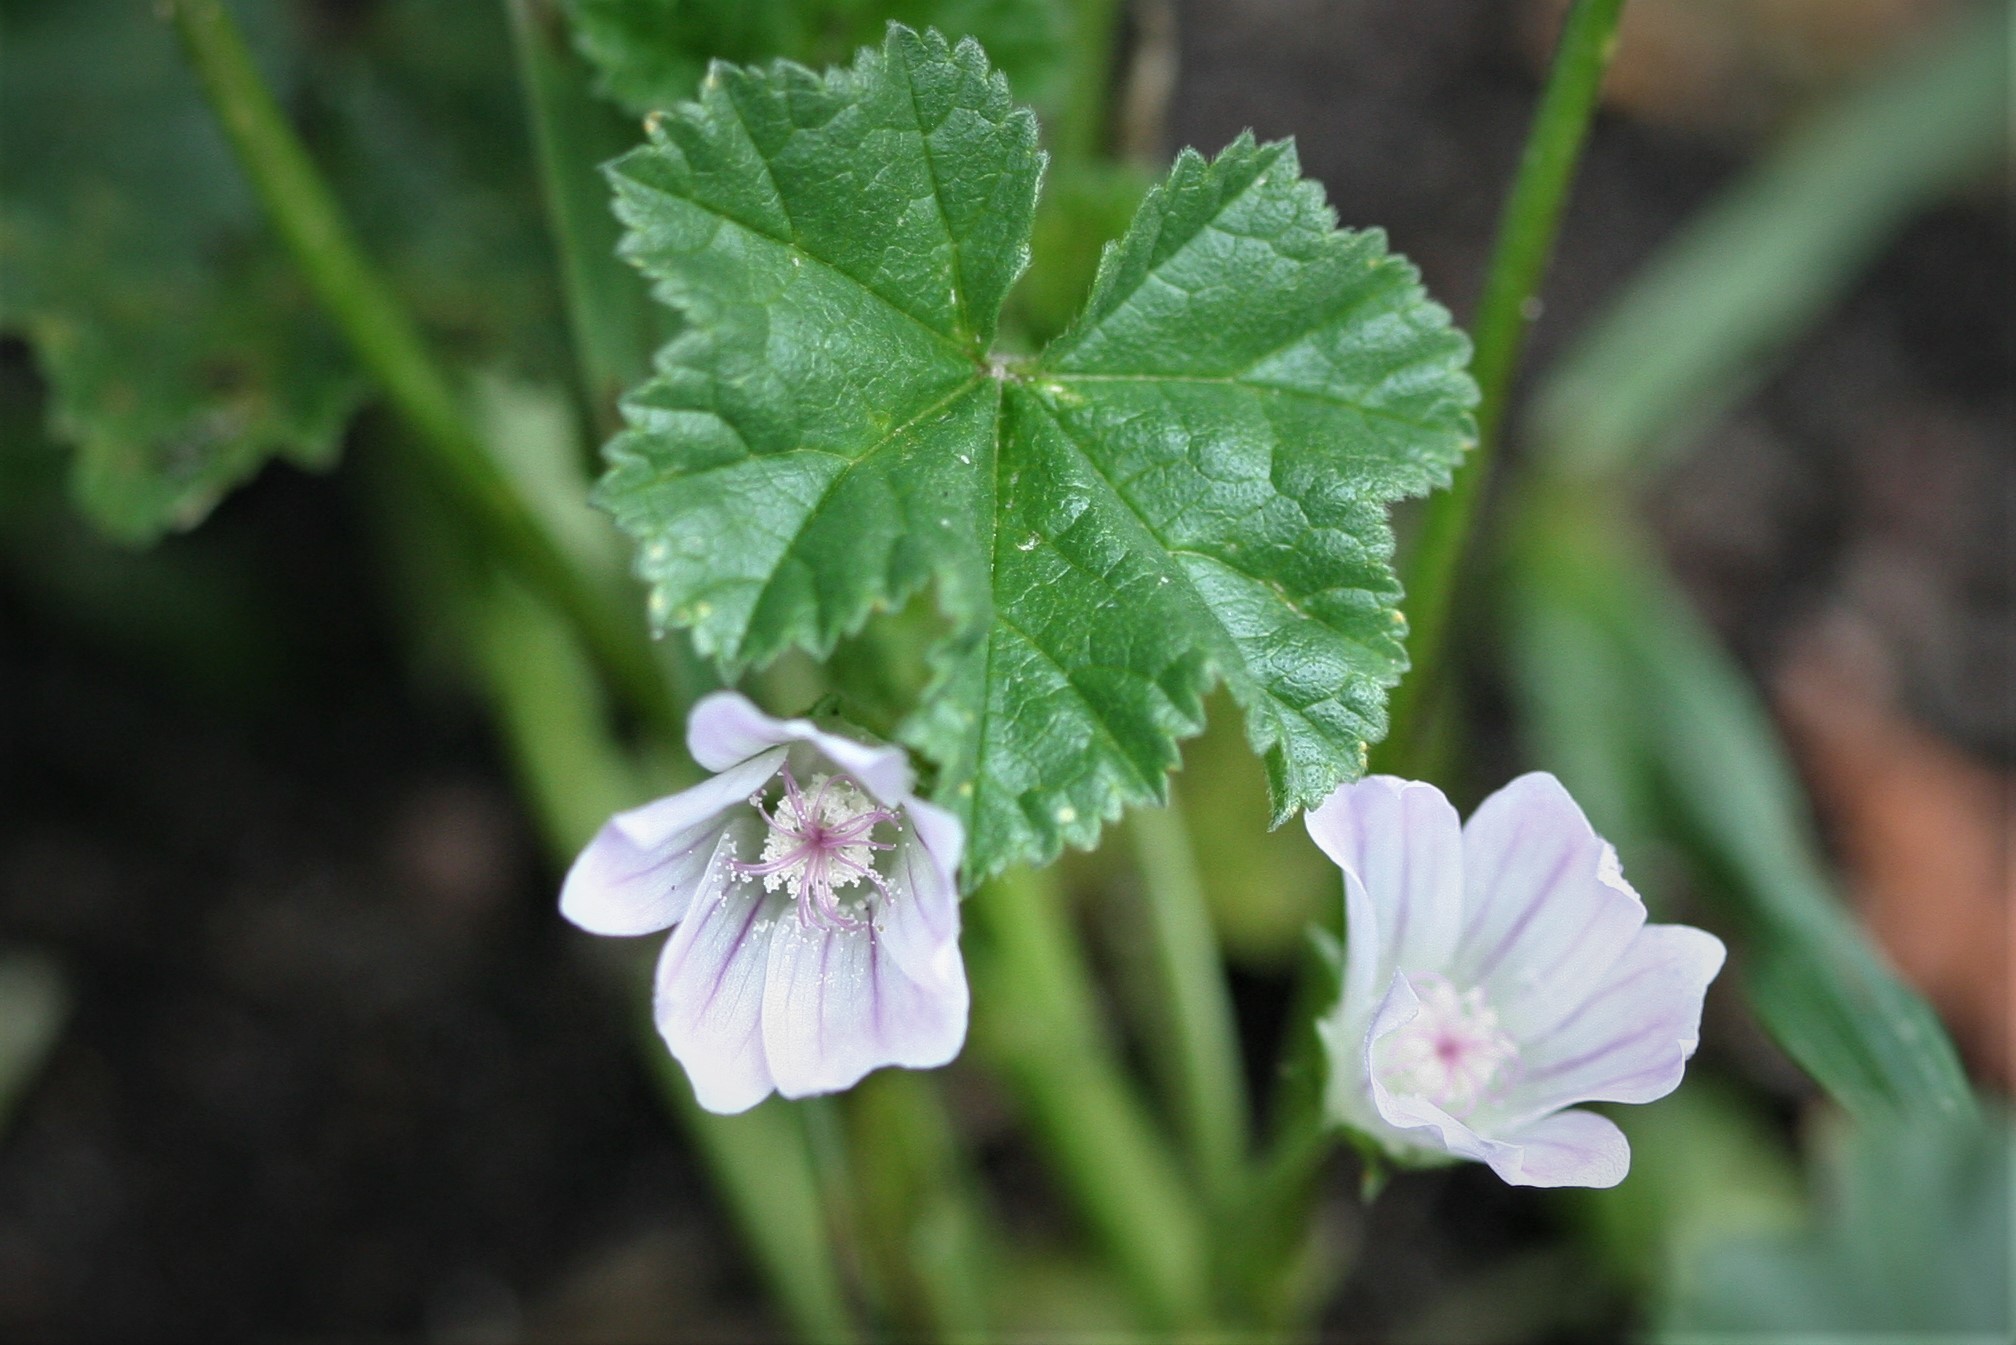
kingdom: Plantae
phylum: Tracheophyta
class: Magnoliopsida
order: Malvales
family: Malvaceae
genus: Malva
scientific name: Malva neglecta
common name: Common mallow
